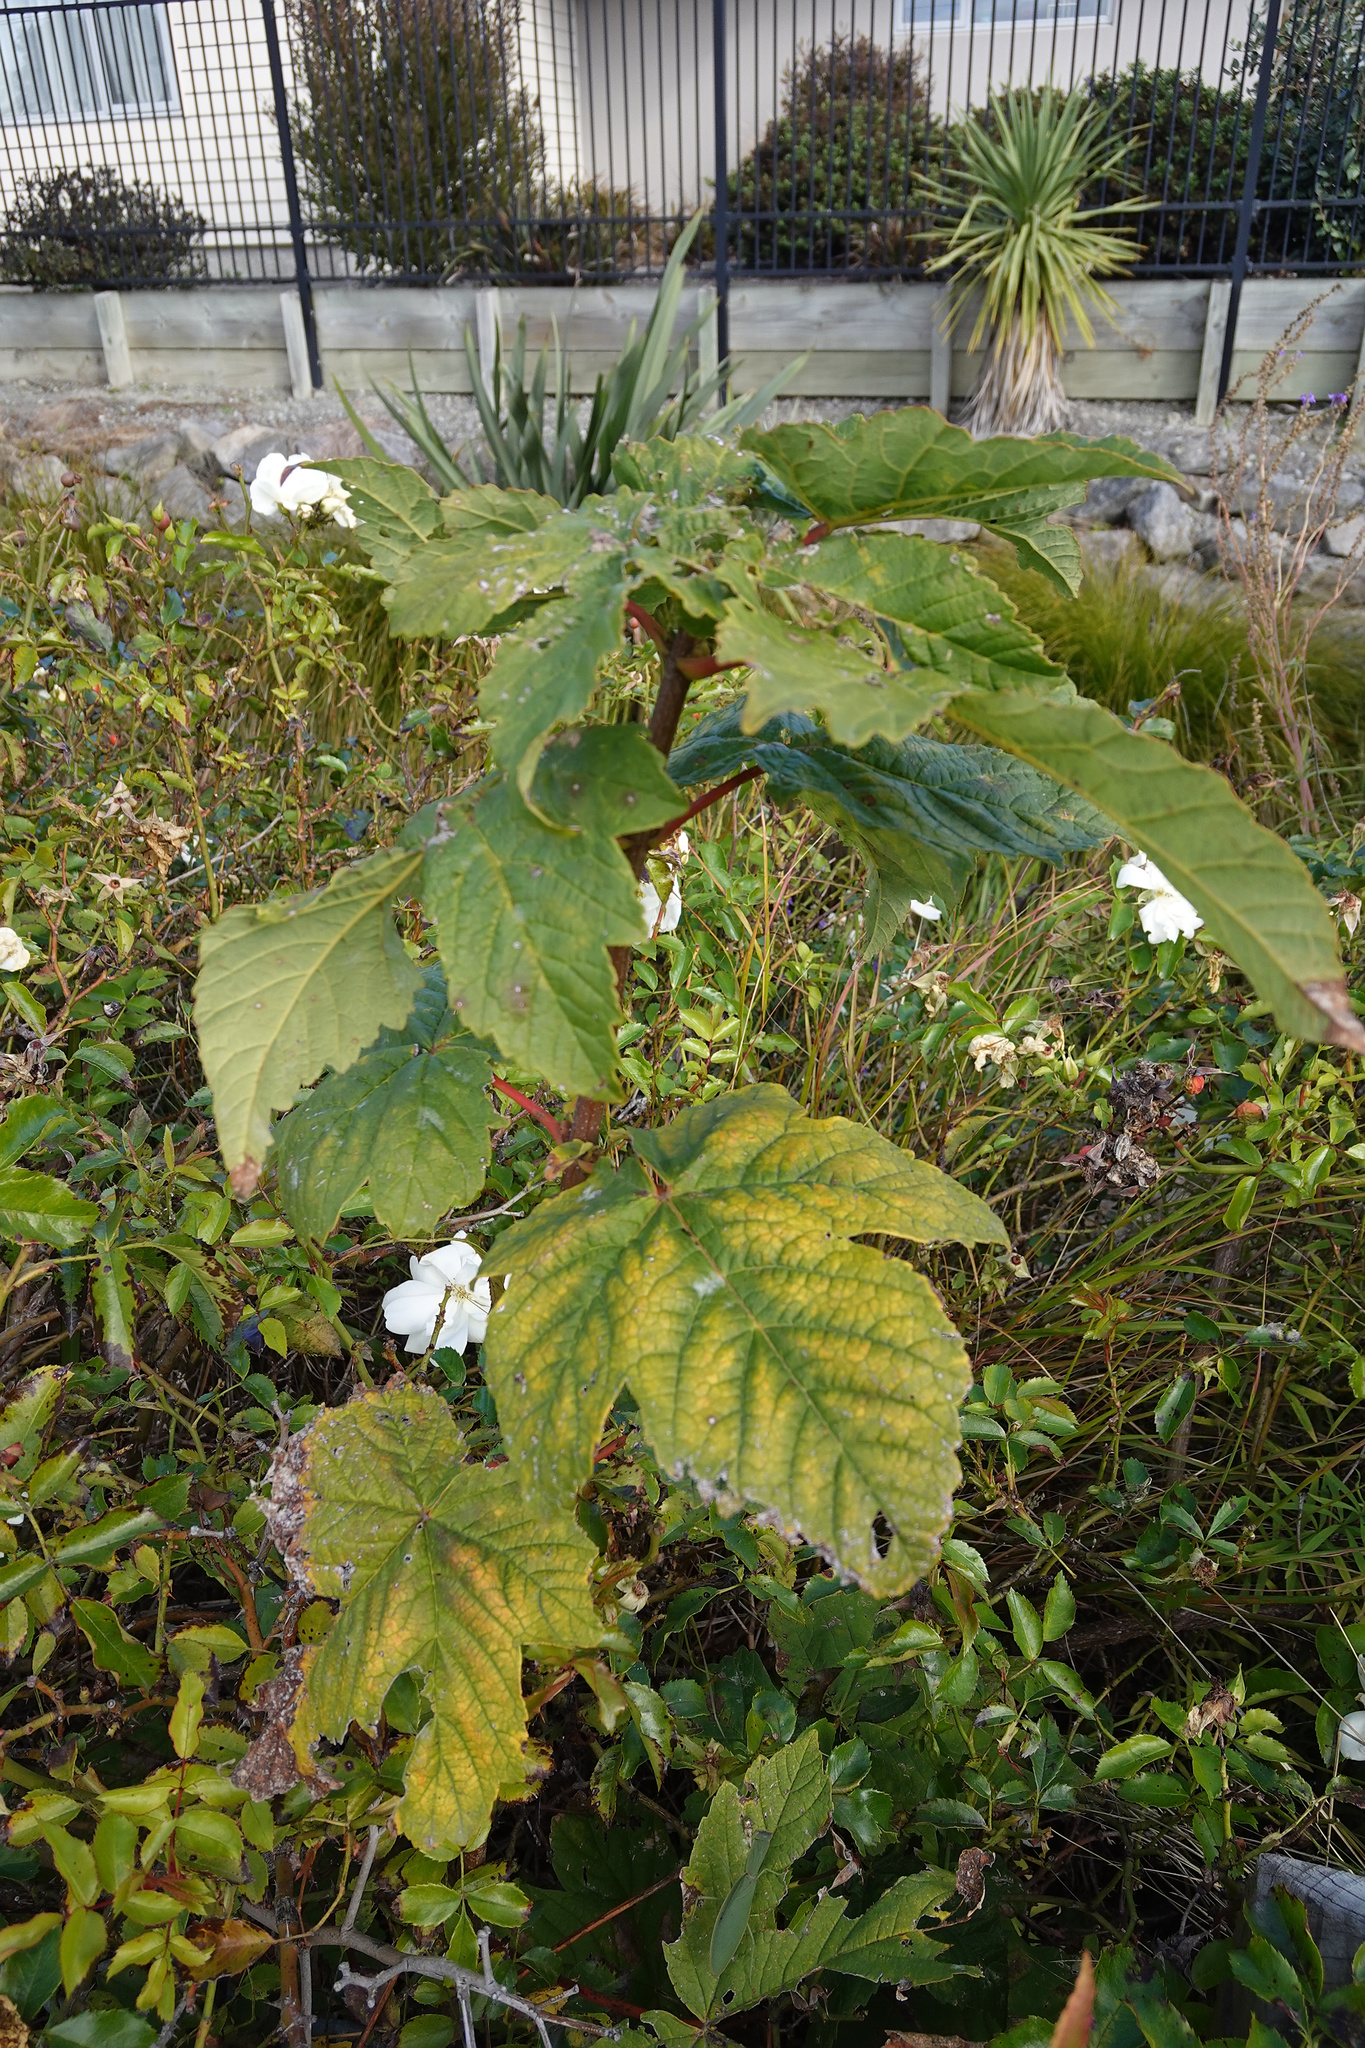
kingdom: Plantae
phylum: Tracheophyta
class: Magnoliopsida
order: Sapindales
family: Sapindaceae
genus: Acer
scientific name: Acer pseudoplatanus
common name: Sycamore
